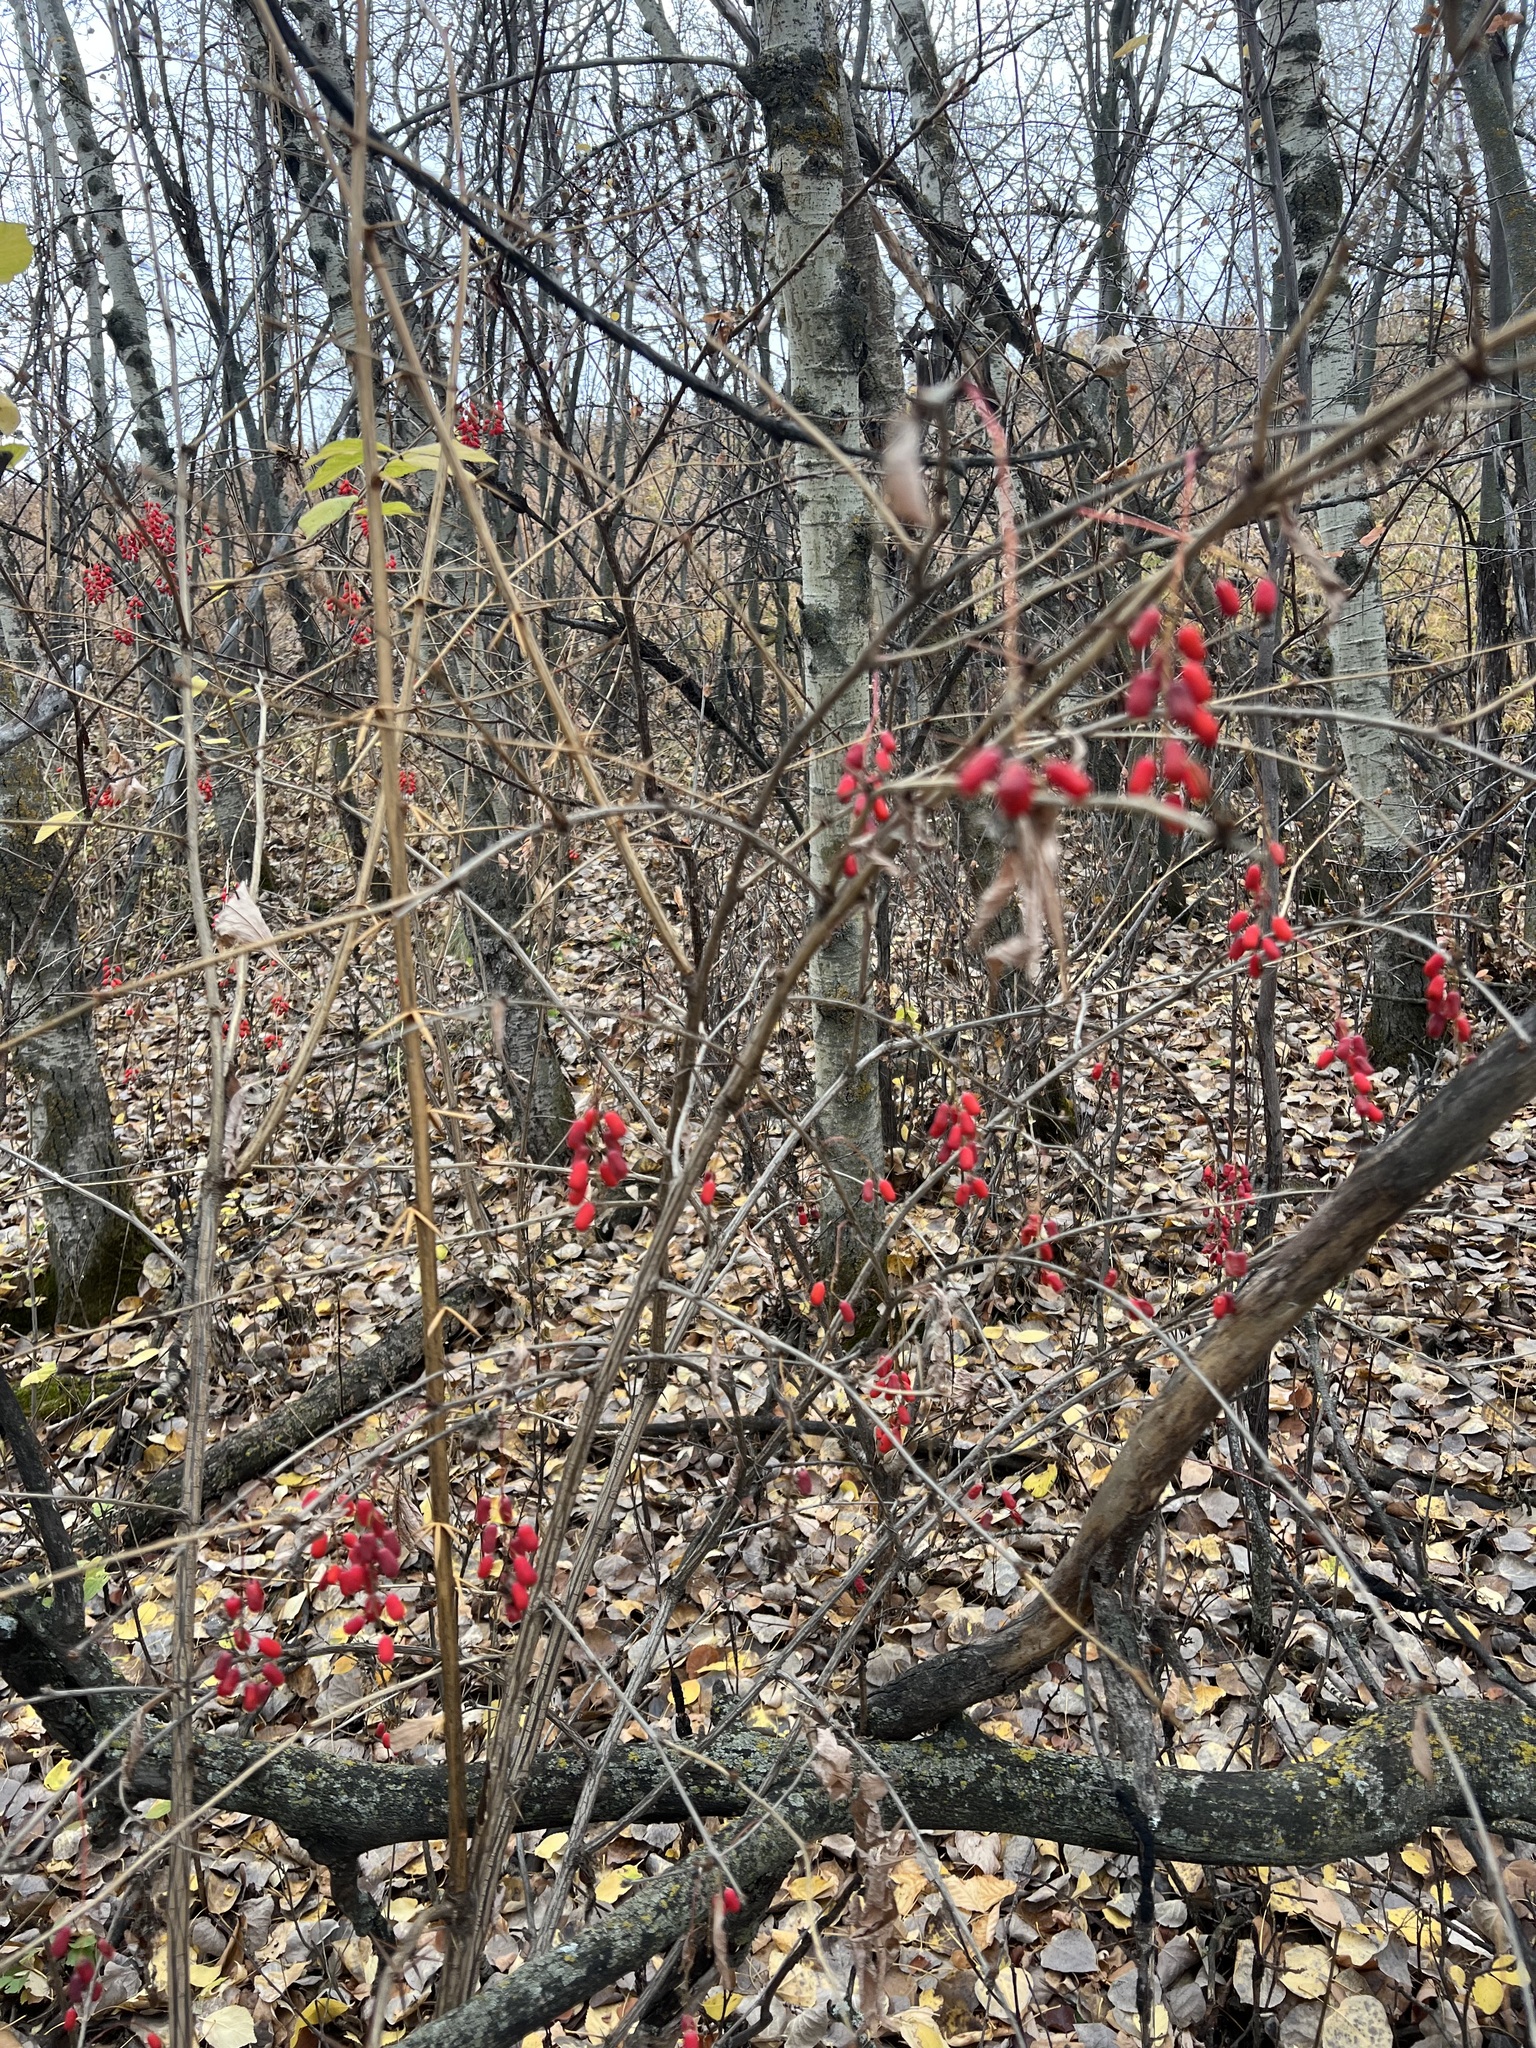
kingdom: Plantae
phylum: Tracheophyta
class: Magnoliopsida
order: Ranunculales
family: Berberidaceae
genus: Berberis
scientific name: Berberis vulgaris
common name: Barberry
